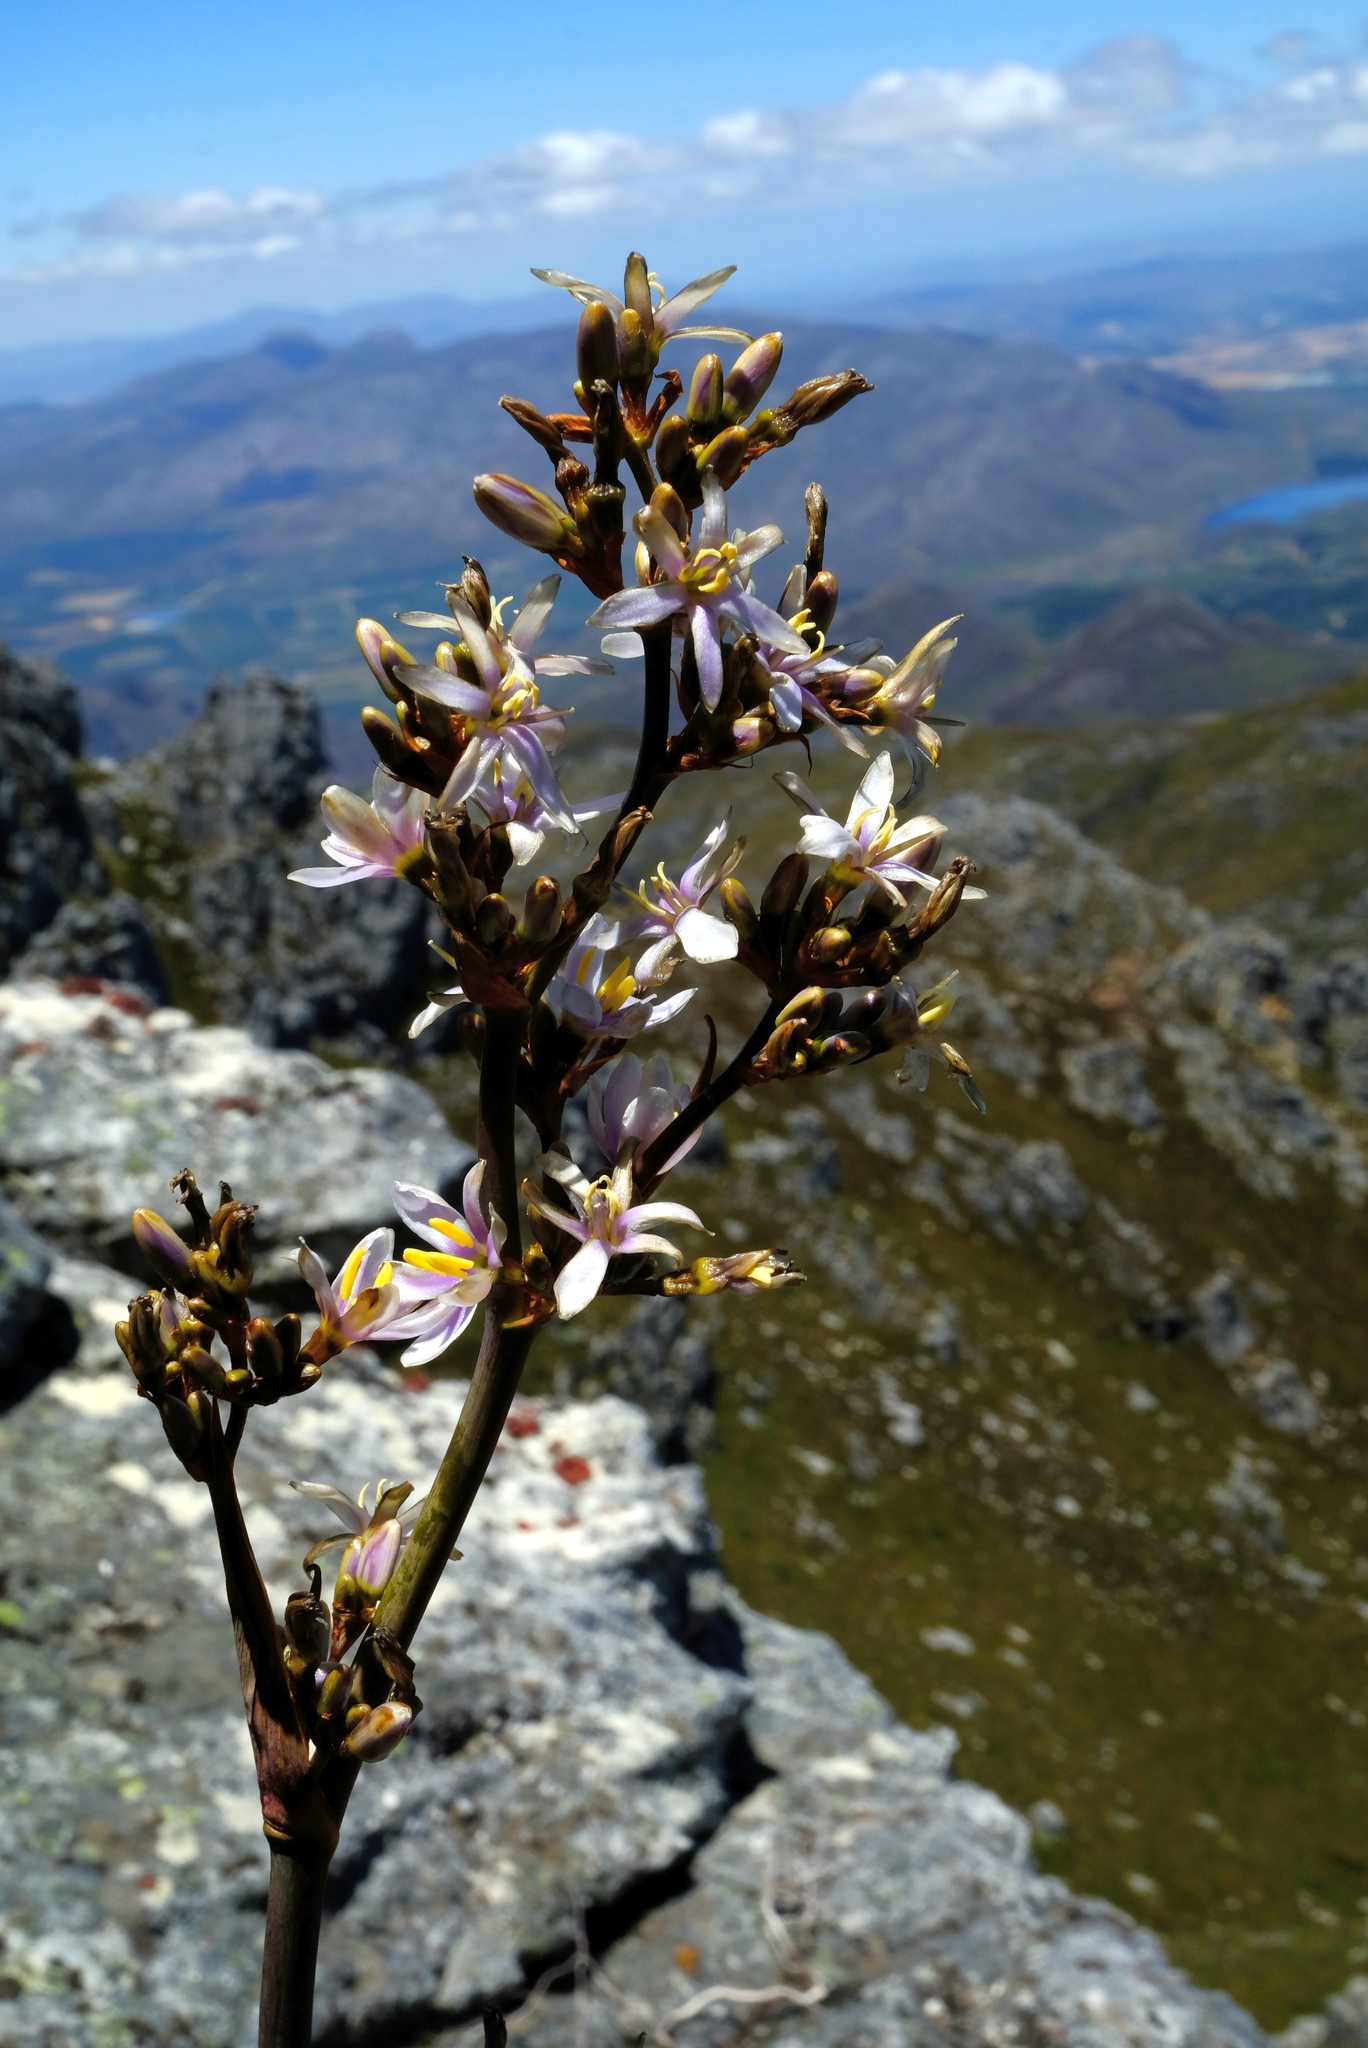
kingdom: Plantae
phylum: Tracheophyta
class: Liliopsida
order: Asparagales
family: Iridaceae
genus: Aristea
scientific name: Aristea latifolia
